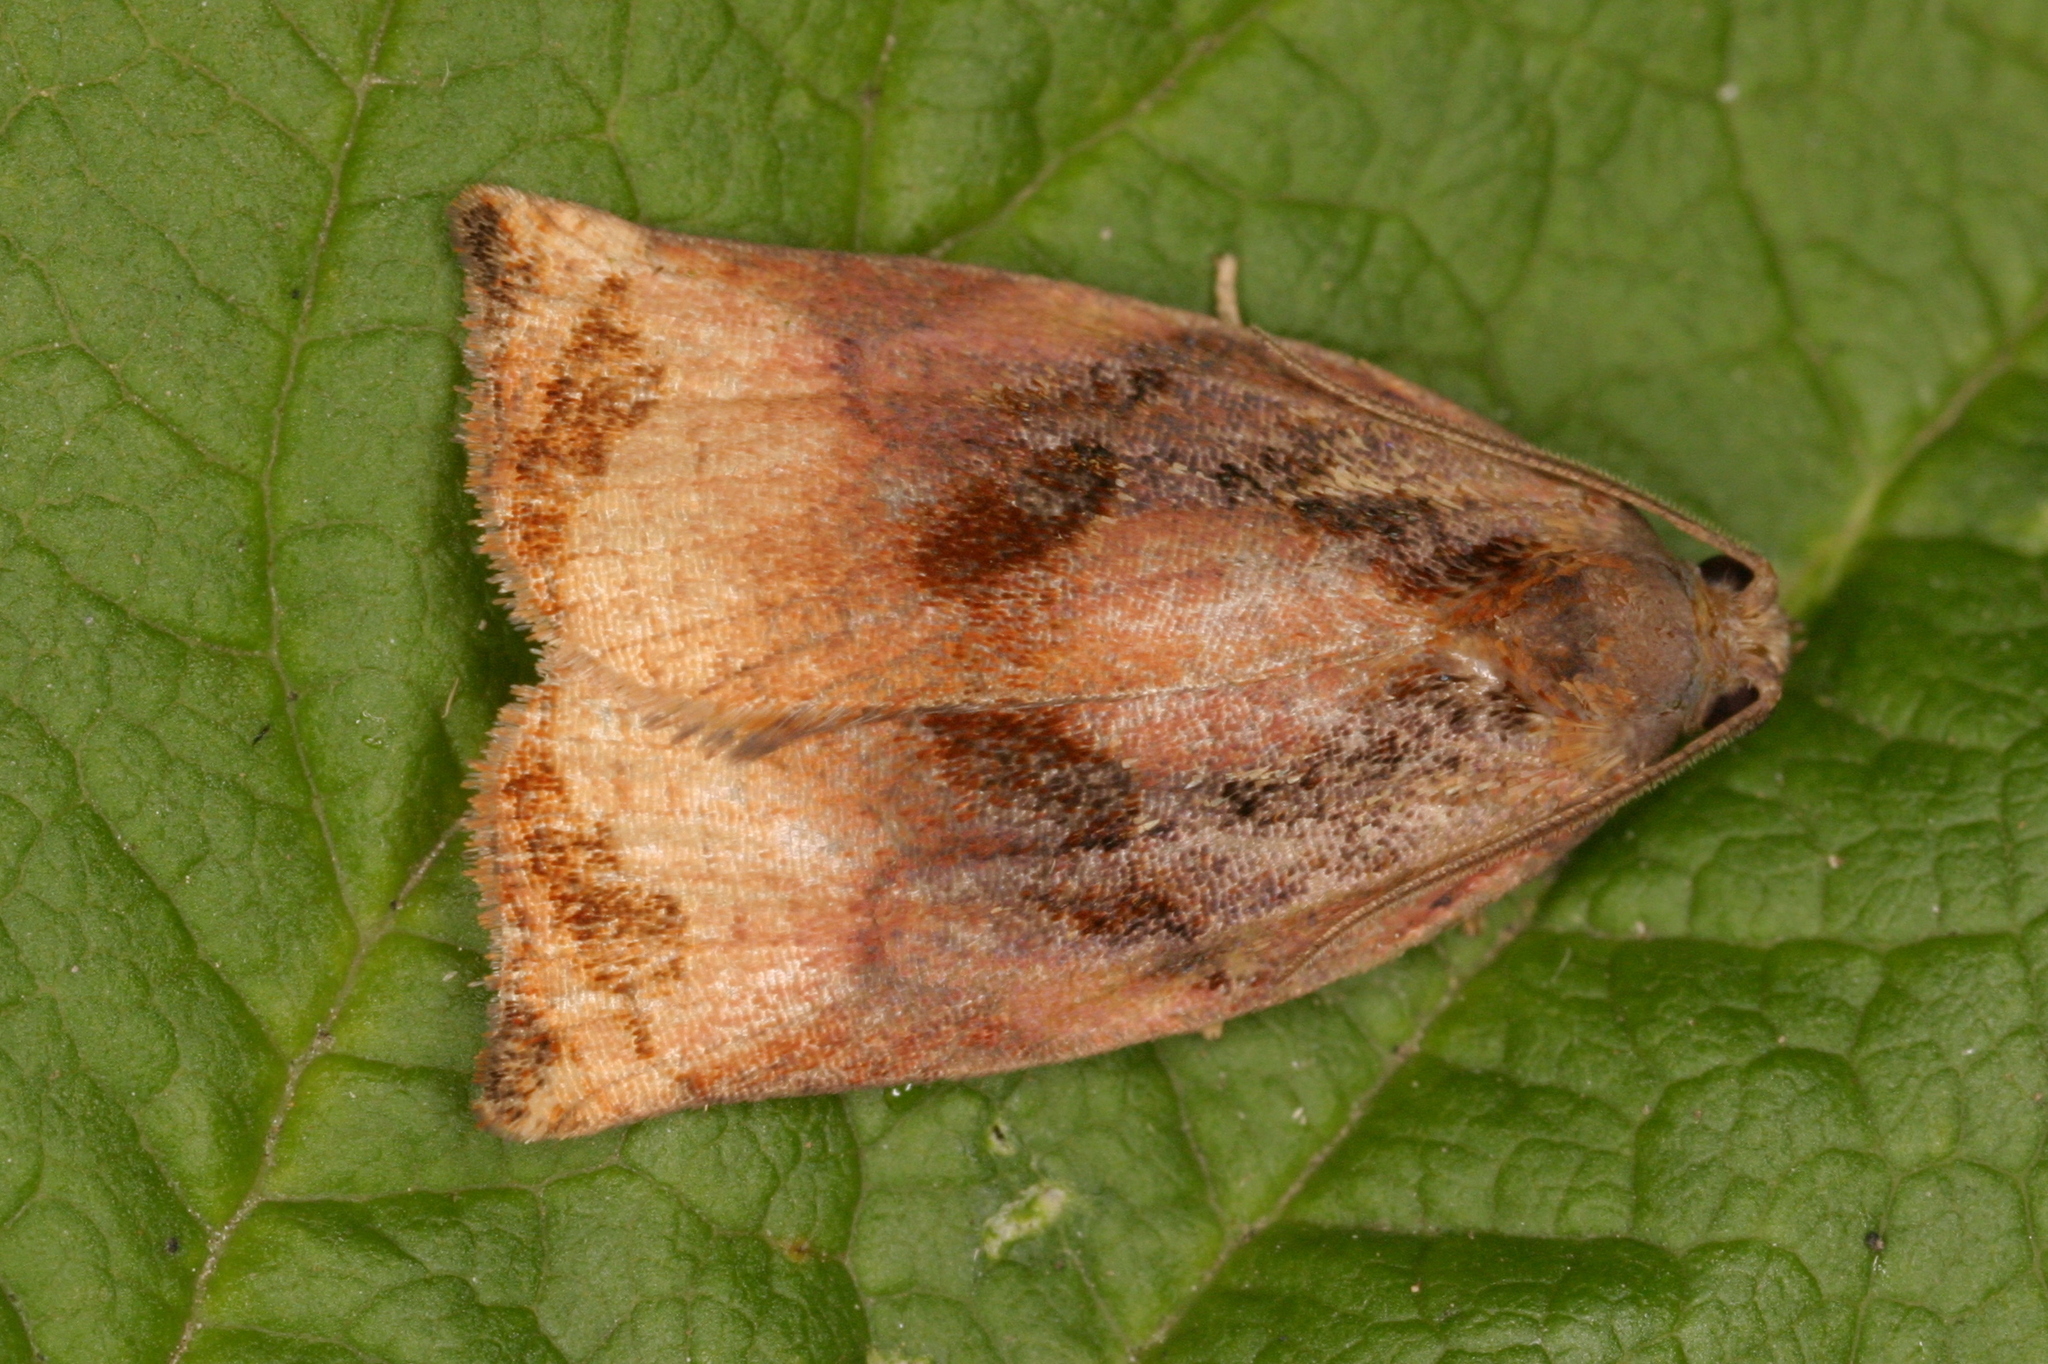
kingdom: Animalia
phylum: Arthropoda
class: Insecta
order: Lepidoptera
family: Tortricidae
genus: Archips
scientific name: Archips podana
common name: Large fruit-tree tortrix
